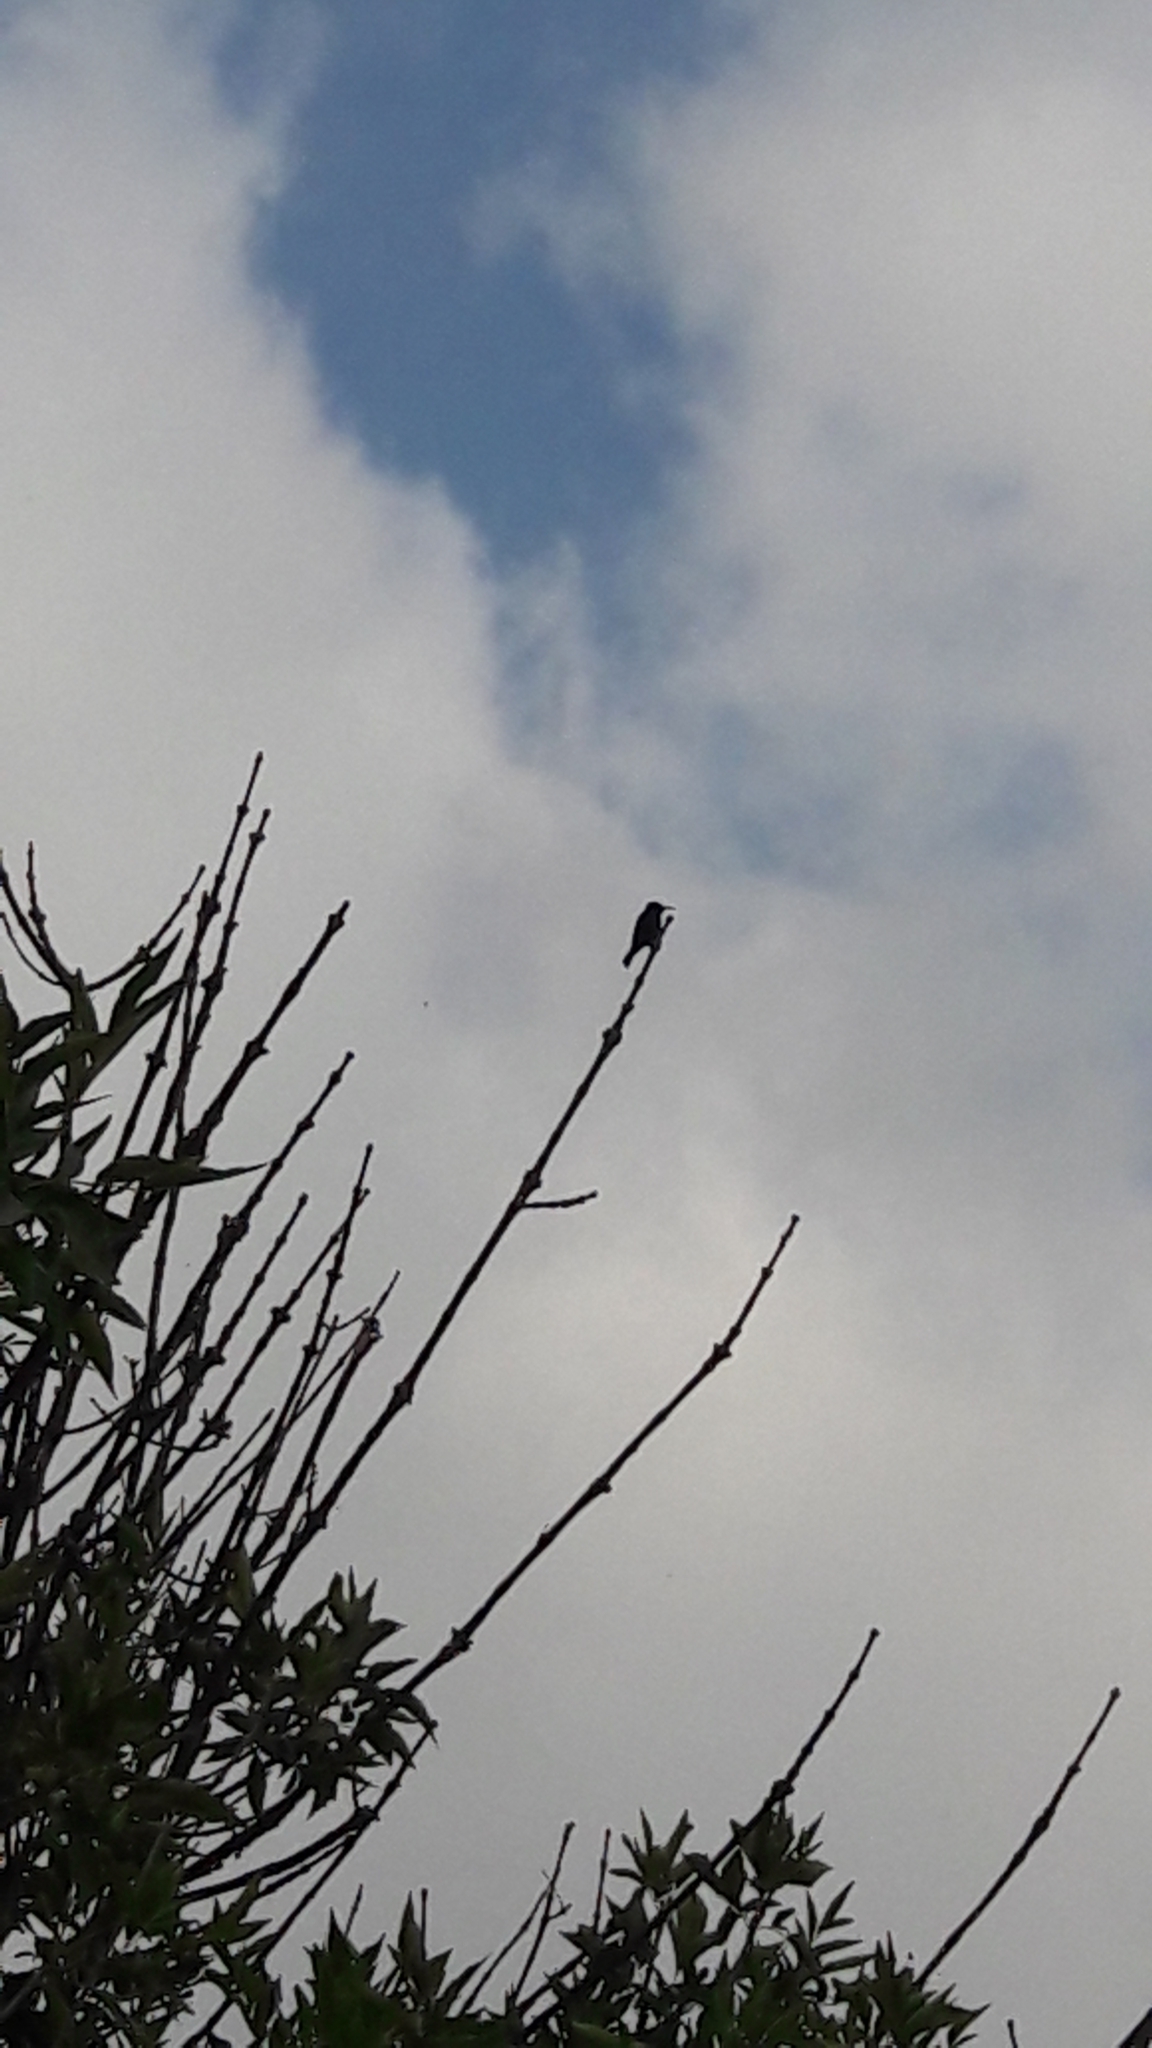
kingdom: Animalia
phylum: Chordata
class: Aves
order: Passeriformes
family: Nectariniidae
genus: Cinnyris
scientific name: Cinnyris osea
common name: Palestine sunbird
